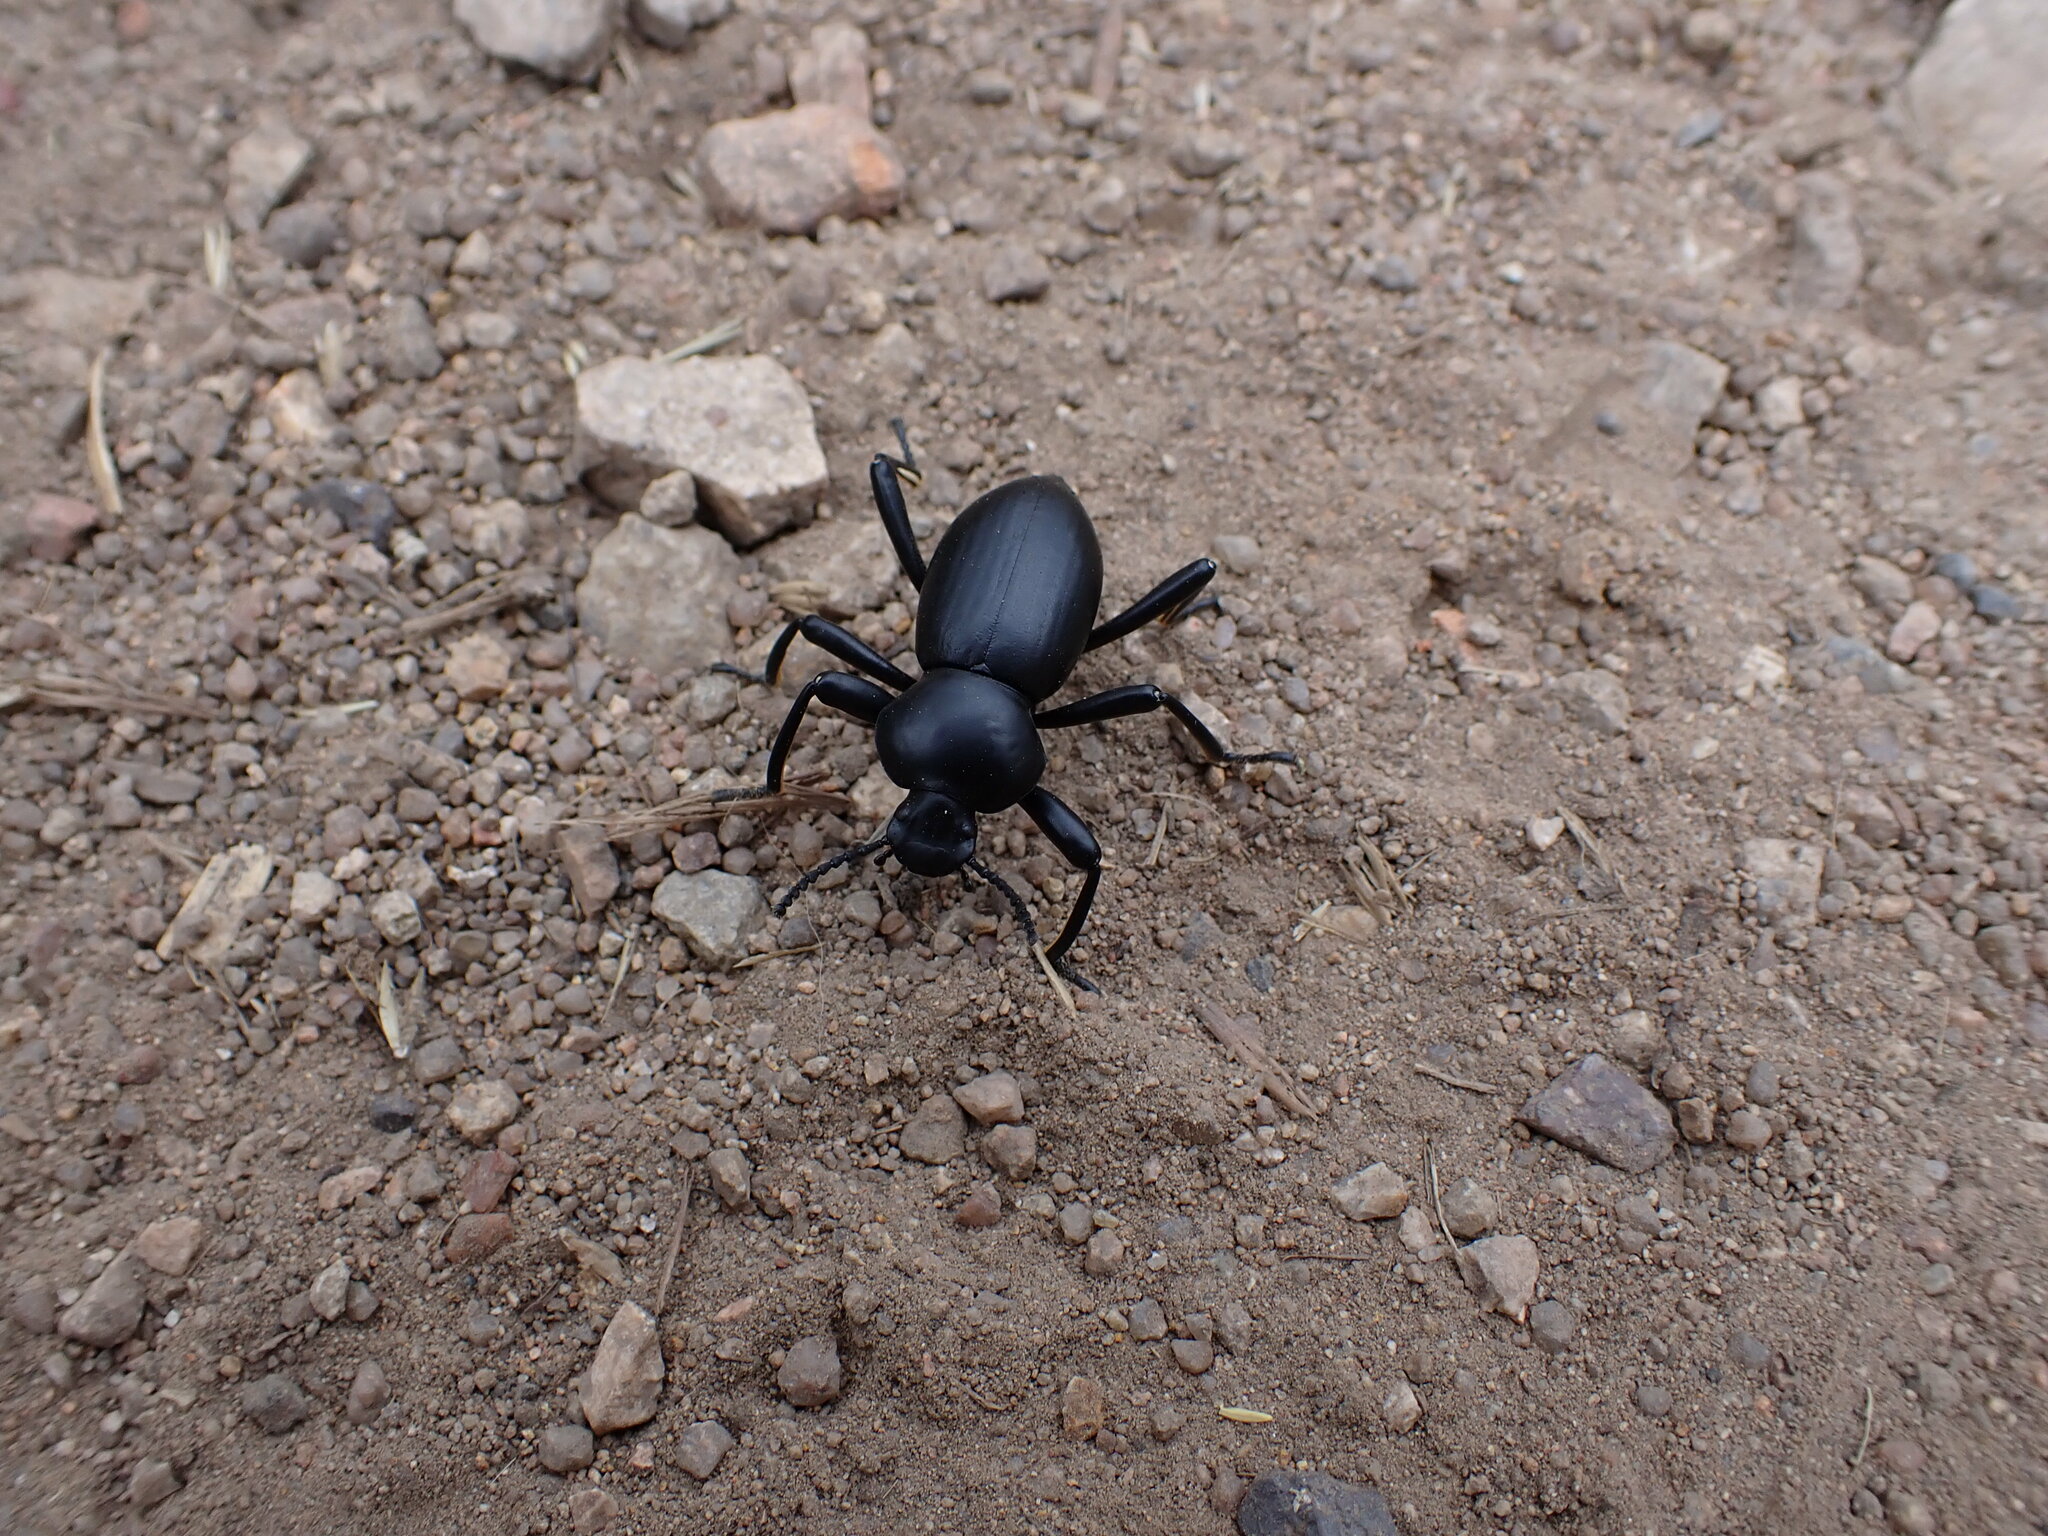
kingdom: Animalia
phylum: Arthropoda
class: Insecta
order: Coleoptera
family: Tenebrionidae
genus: Coelocnemis
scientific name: Coelocnemis magna
